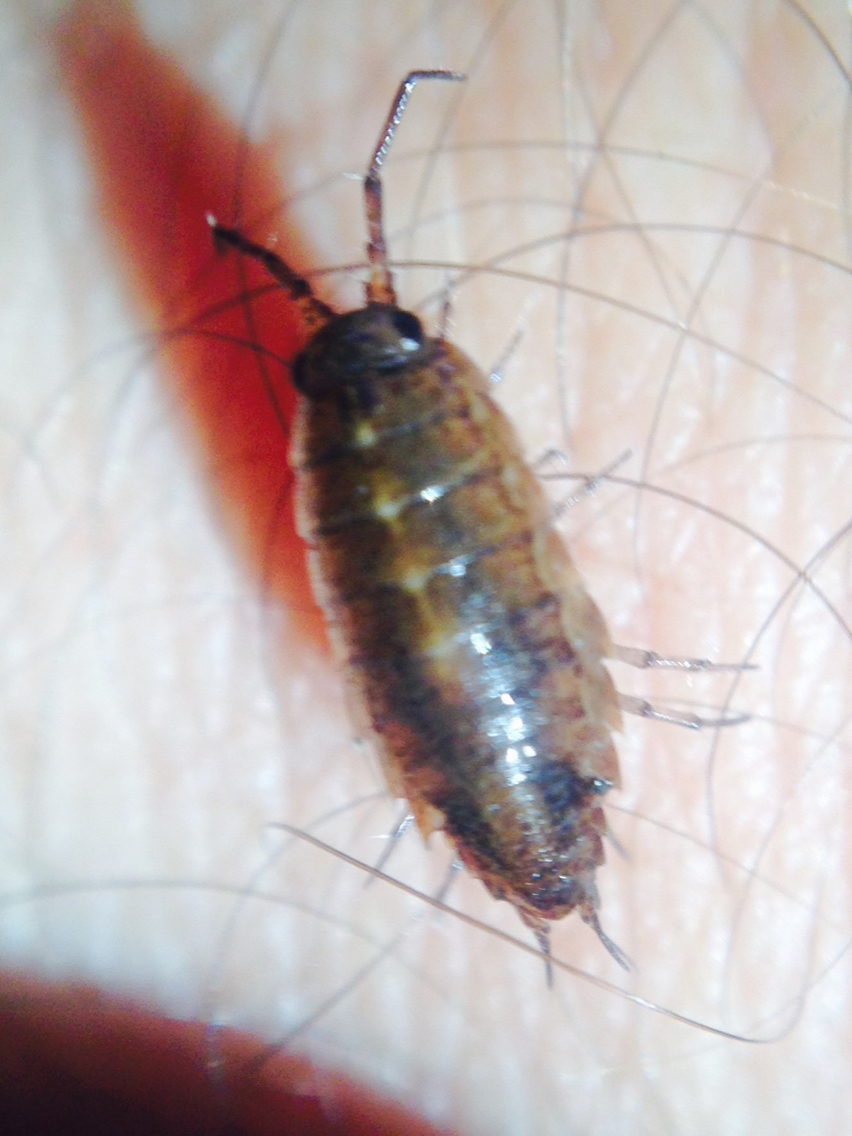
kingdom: Animalia
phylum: Arthropoda
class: Malacostraca
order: Isopoda
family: Ligiidae
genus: Ligidium
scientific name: Ligidium latum
